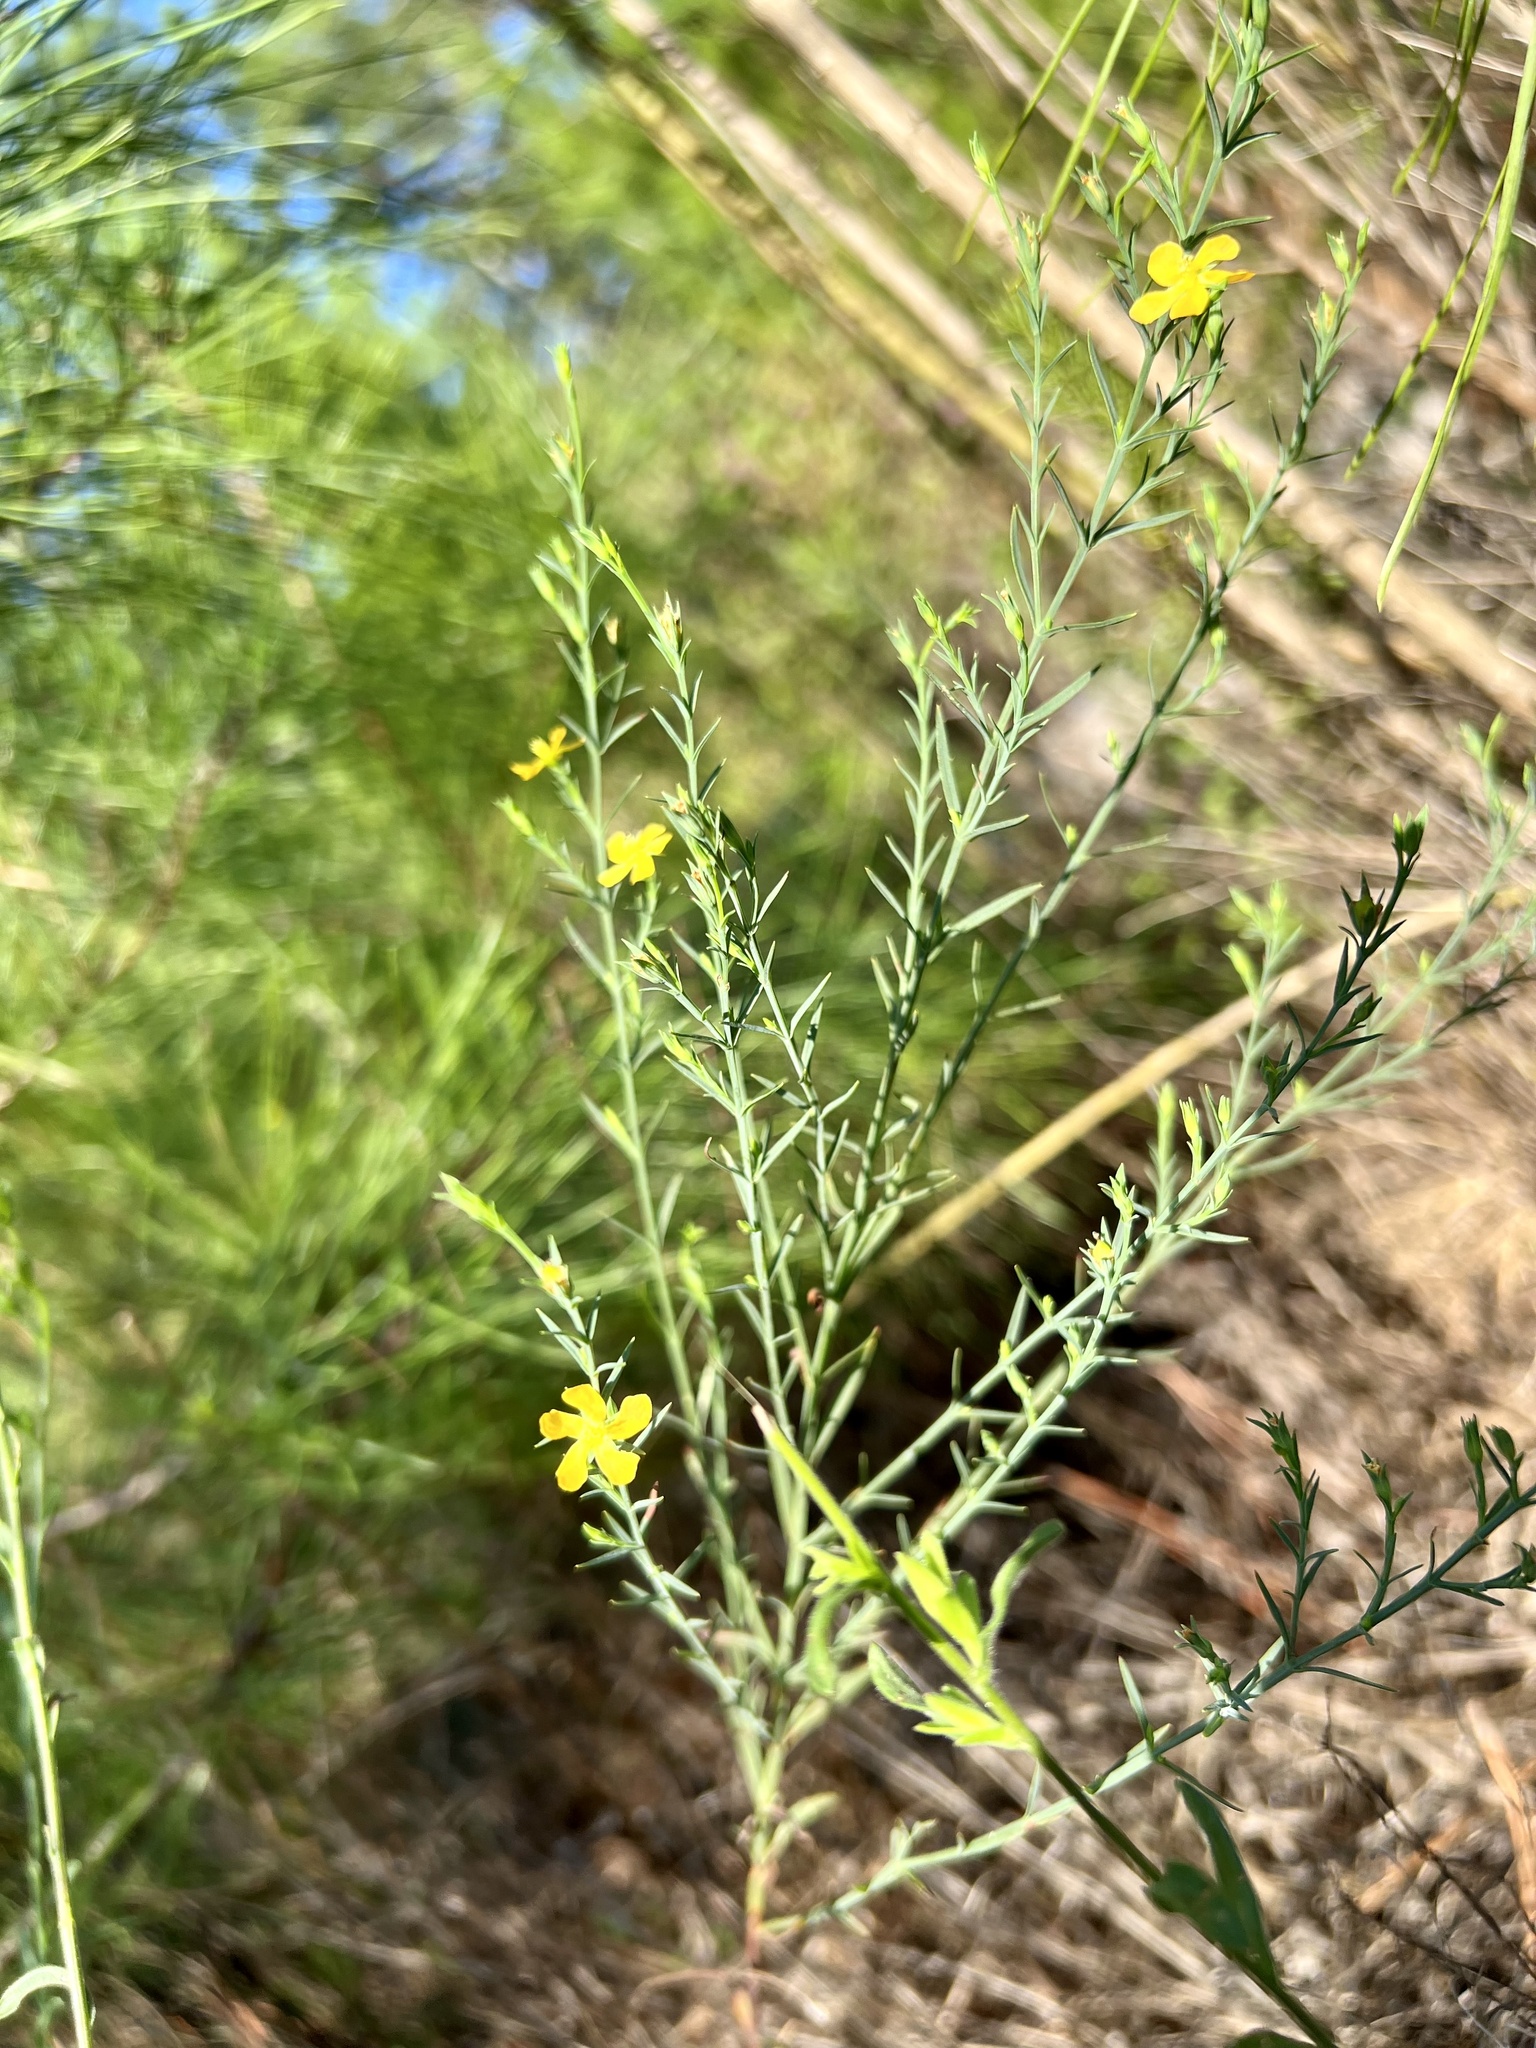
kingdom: Plantae
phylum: Tracheophyta
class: Magnoliopsida
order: Malpighiales
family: Hypericaceae
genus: Hypericum
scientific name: Hypericum drummondii
